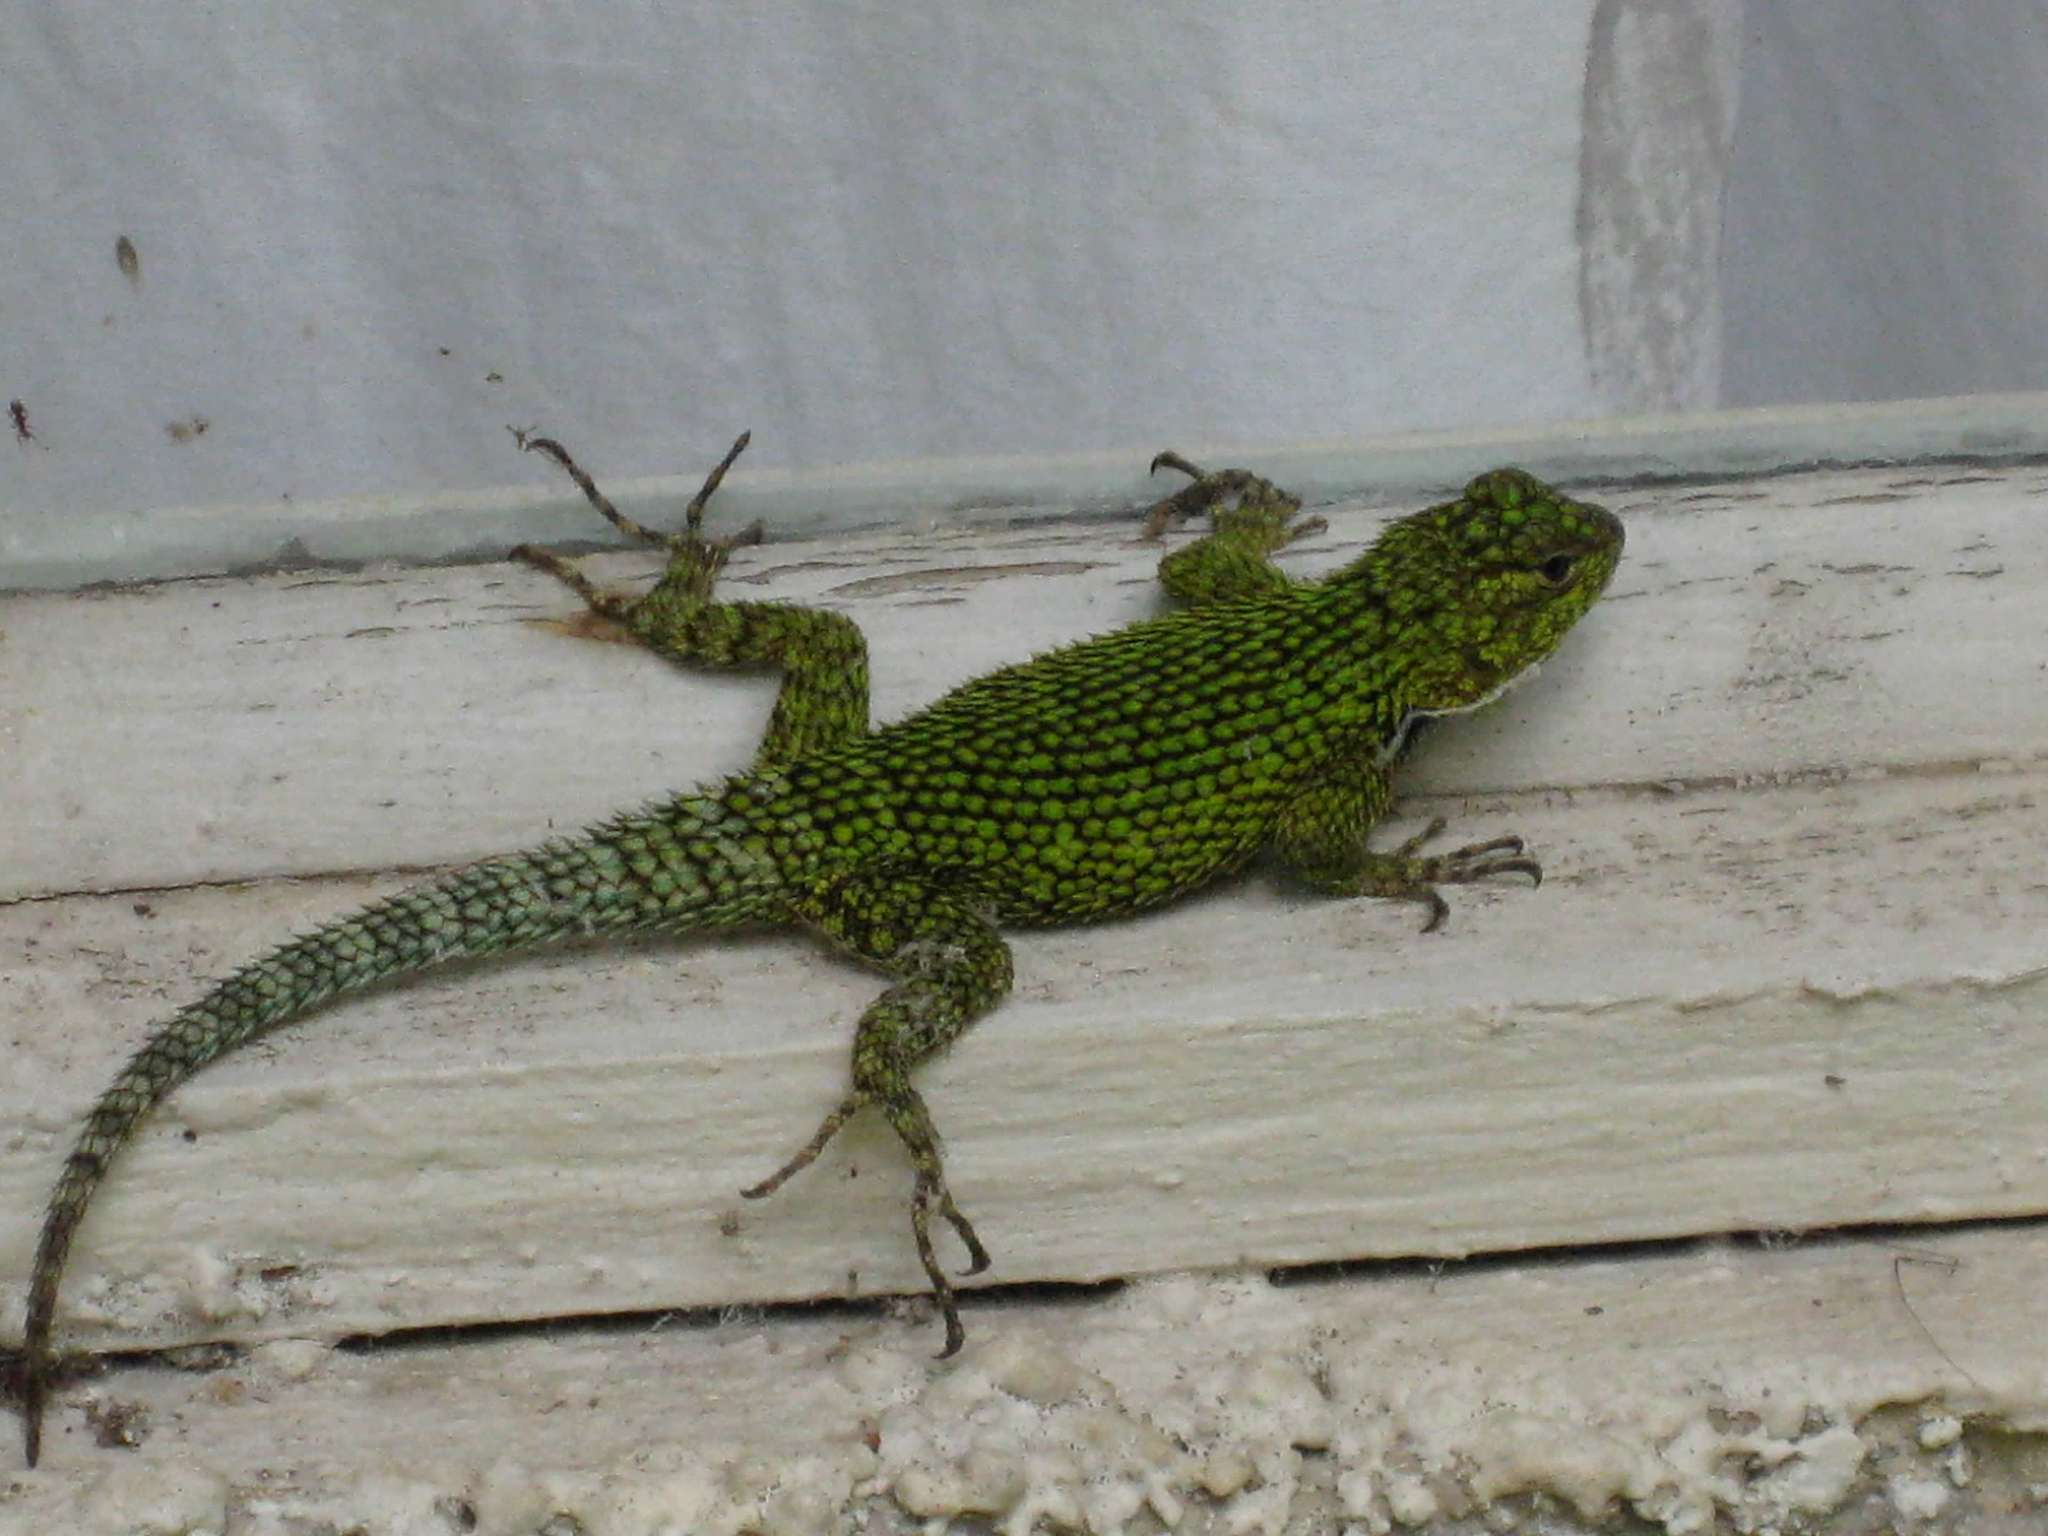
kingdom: Animalia
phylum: Chordata
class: Squamata
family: Phrynosomatidae
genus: Sceloporus
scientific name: Sceloporus malachiticus
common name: Green spiny lizard
